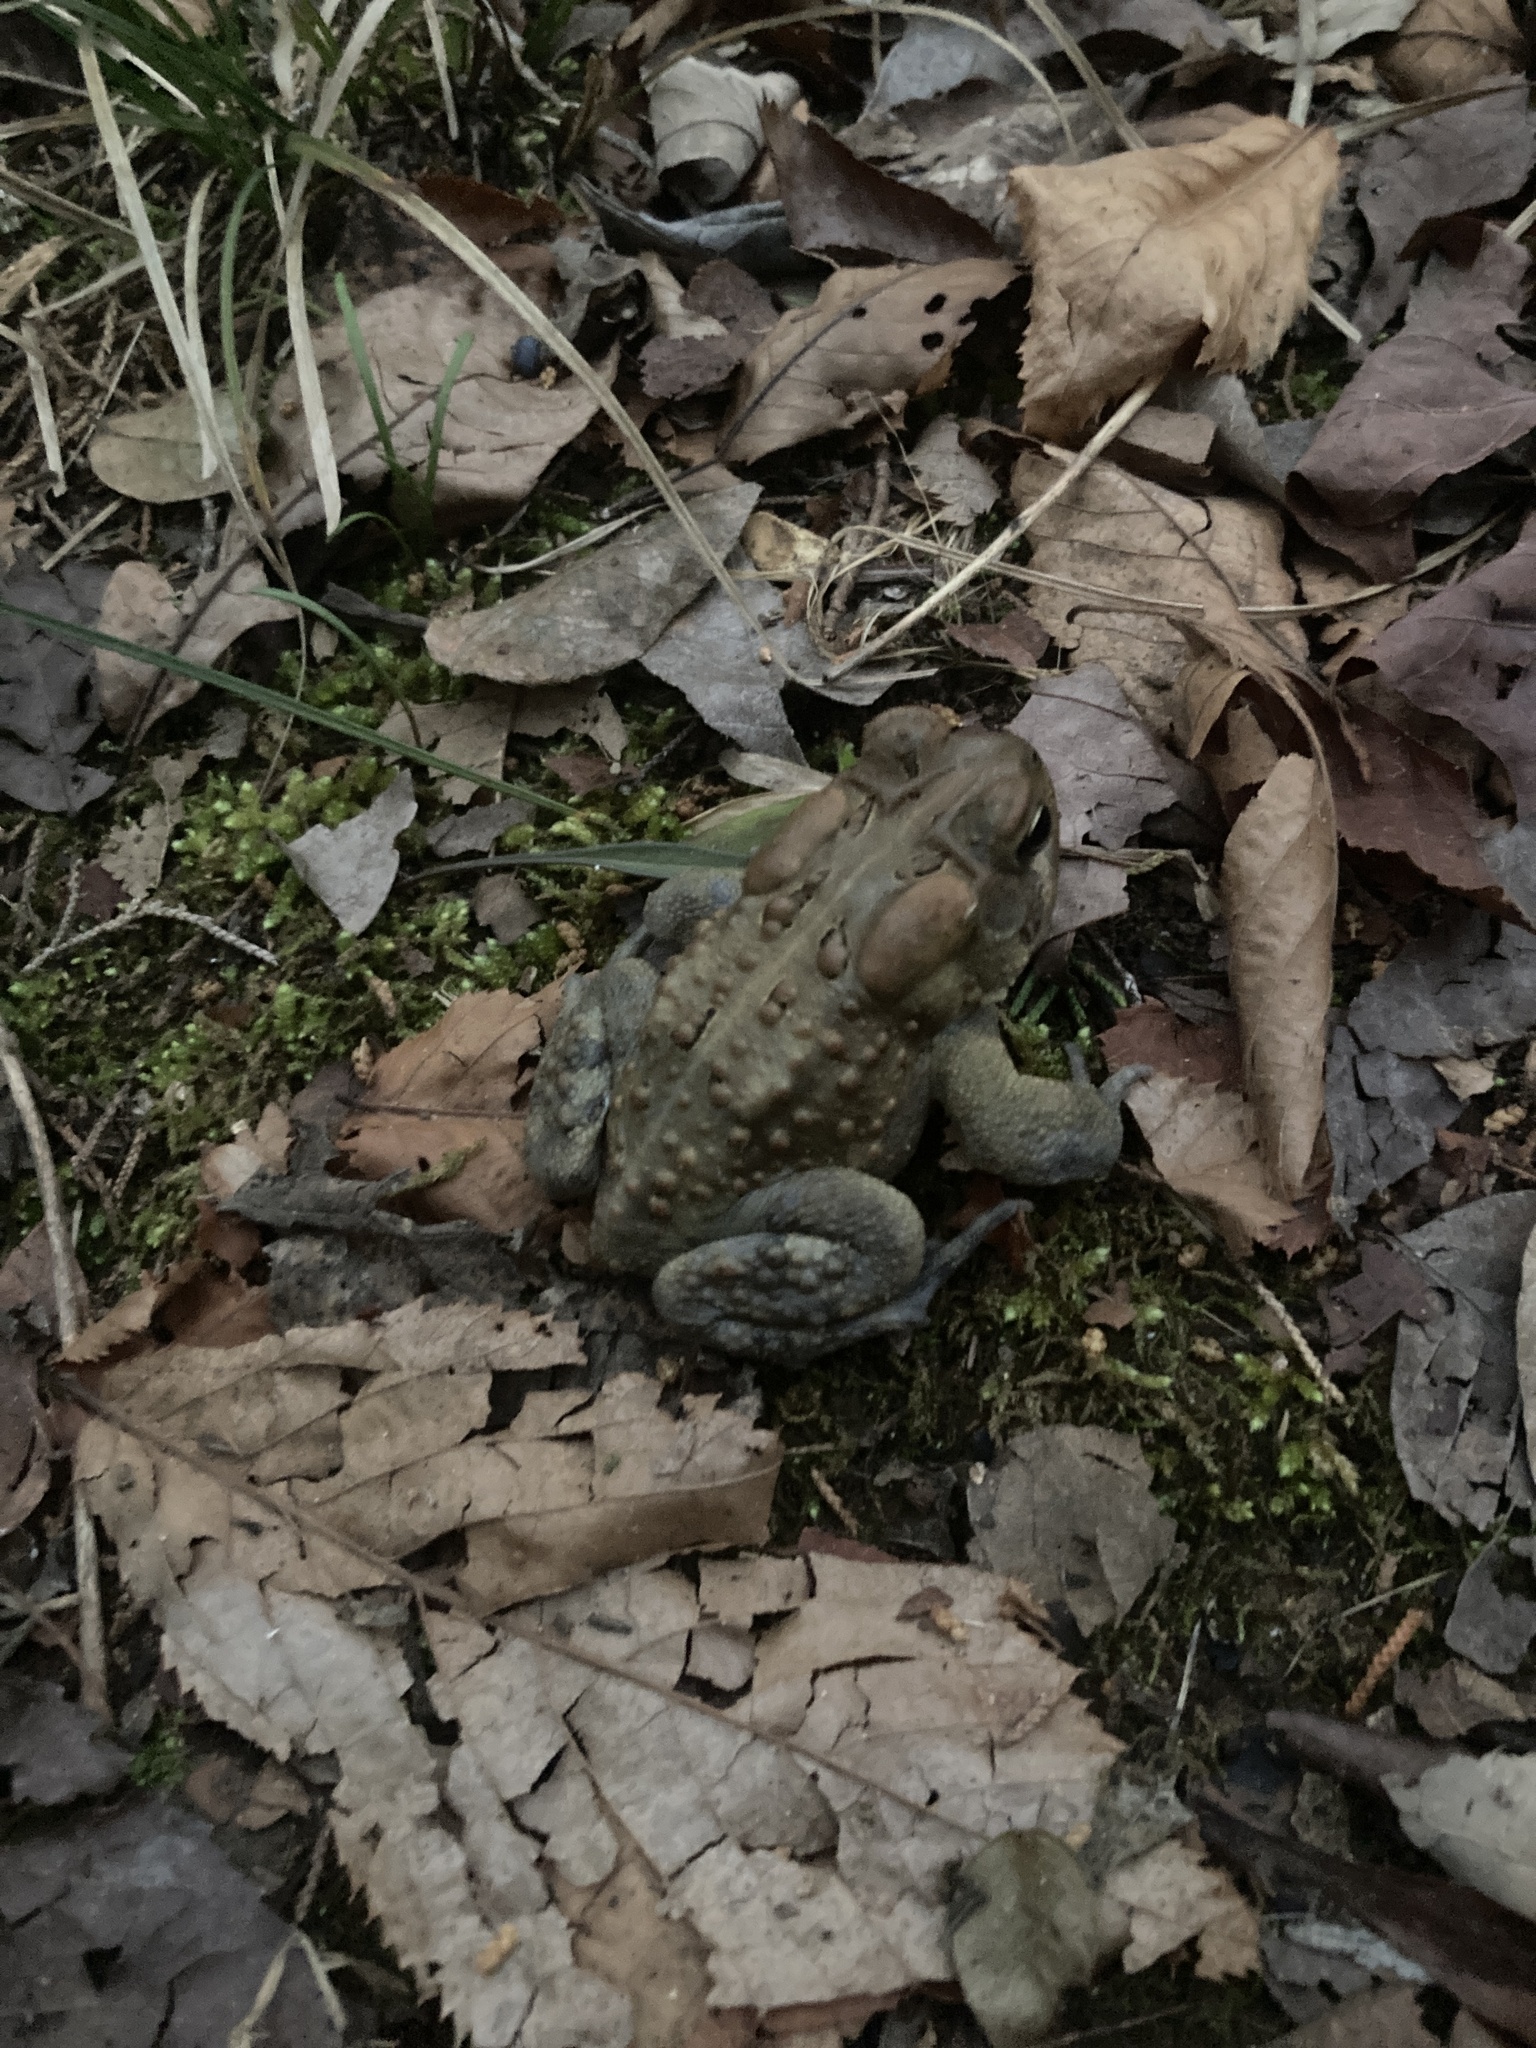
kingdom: Animalia
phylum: Chordata
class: Amphibia
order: Anura
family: Bufonidae
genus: Anaxyrus
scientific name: Anaxyrus americanus
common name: American toad
